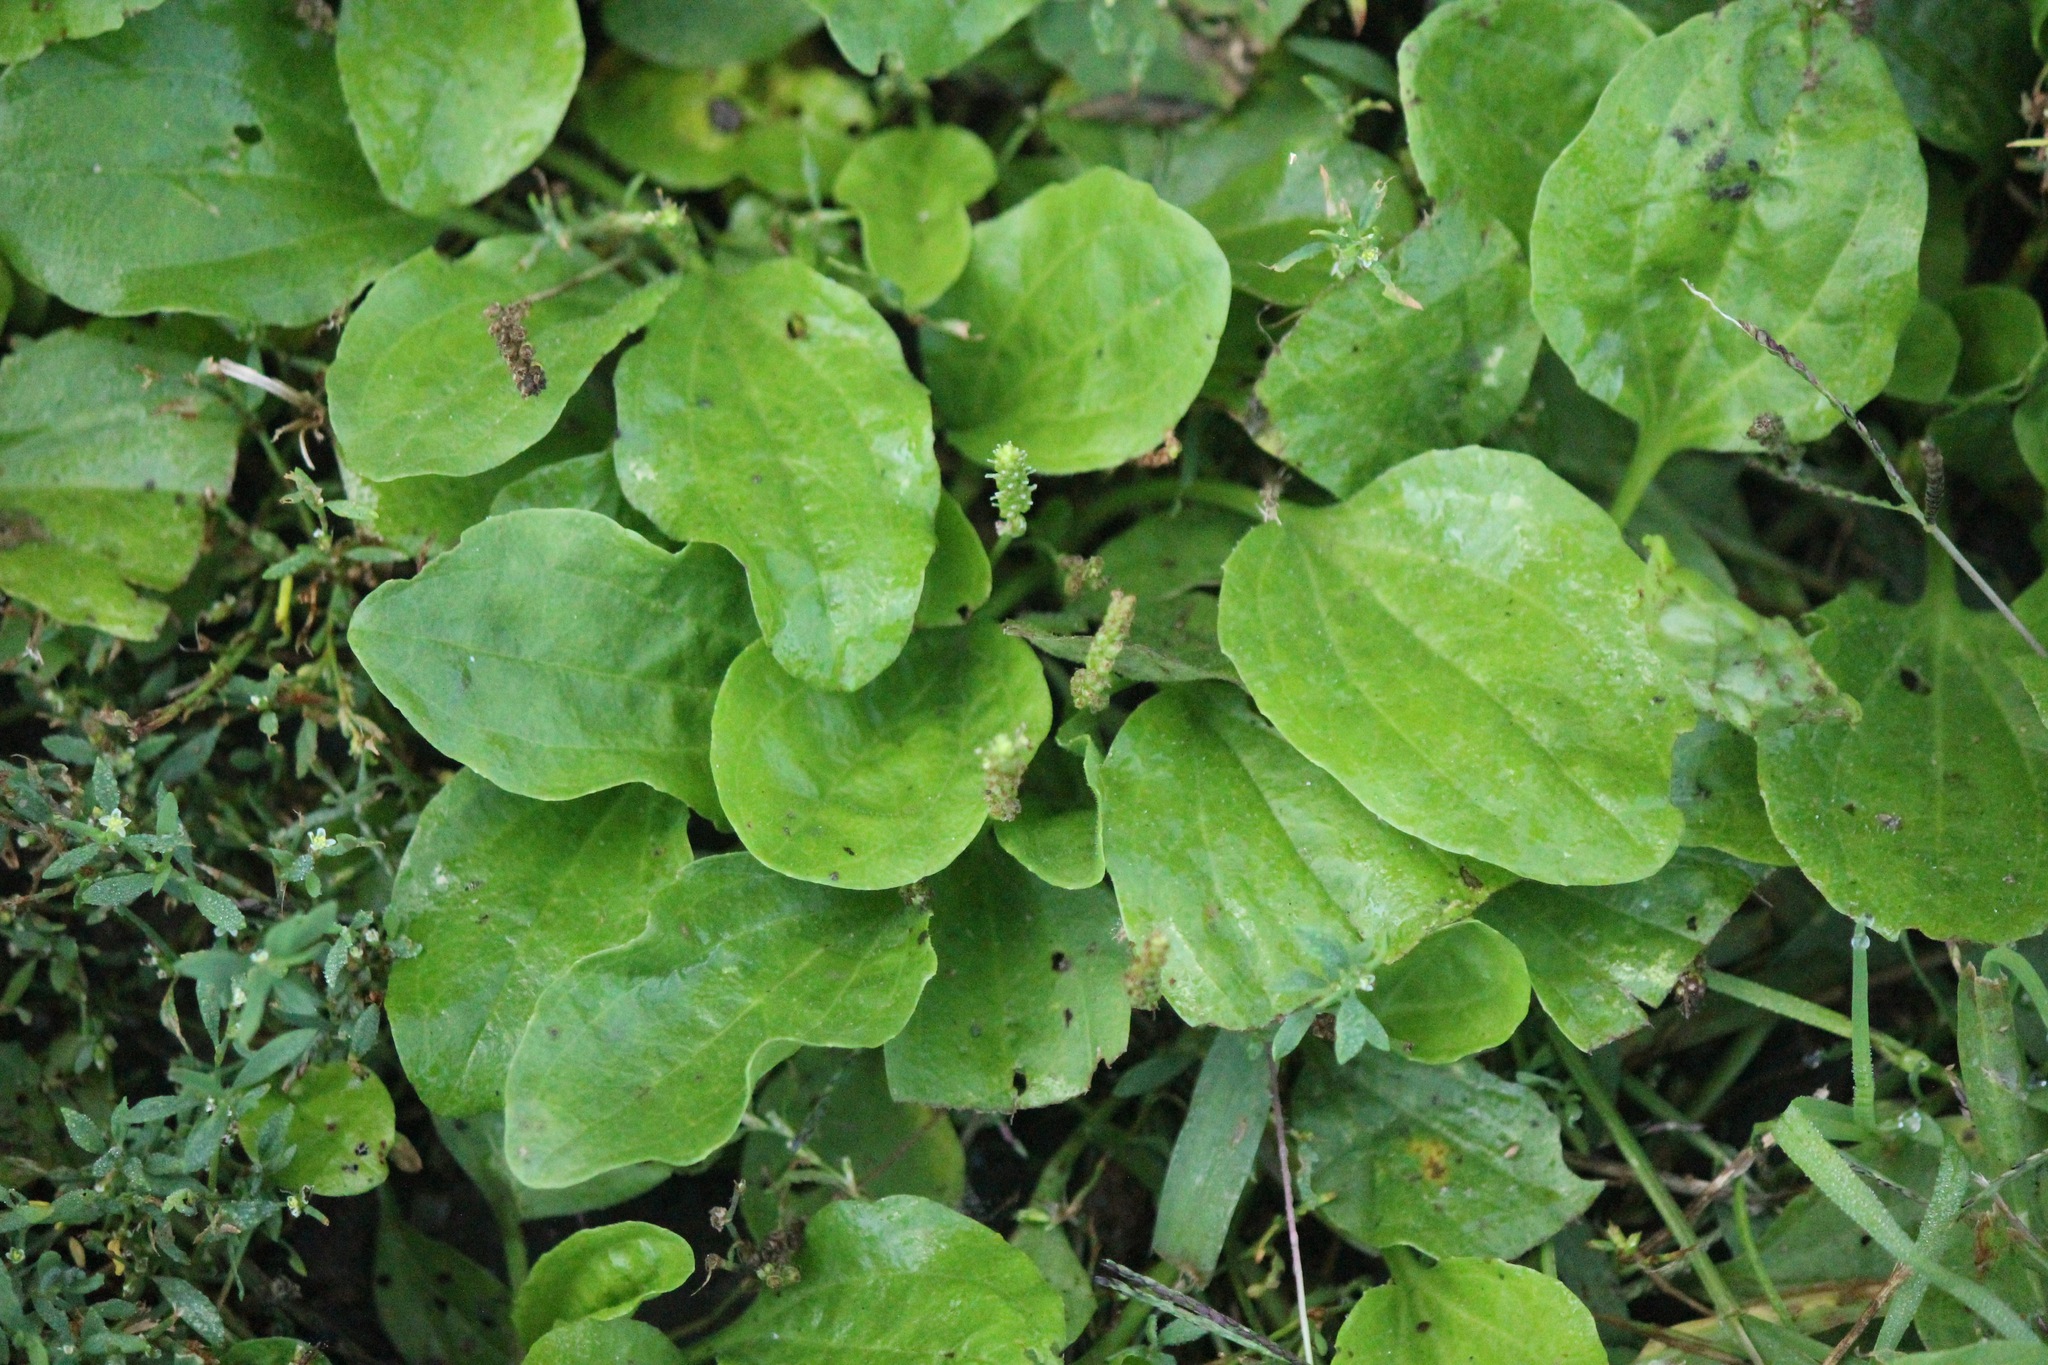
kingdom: Plantae
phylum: Tracheophyta
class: Magnoliopsida
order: Lamiales
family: Plantaginaceae
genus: Plantago
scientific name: Plantago major
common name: Common plantain
